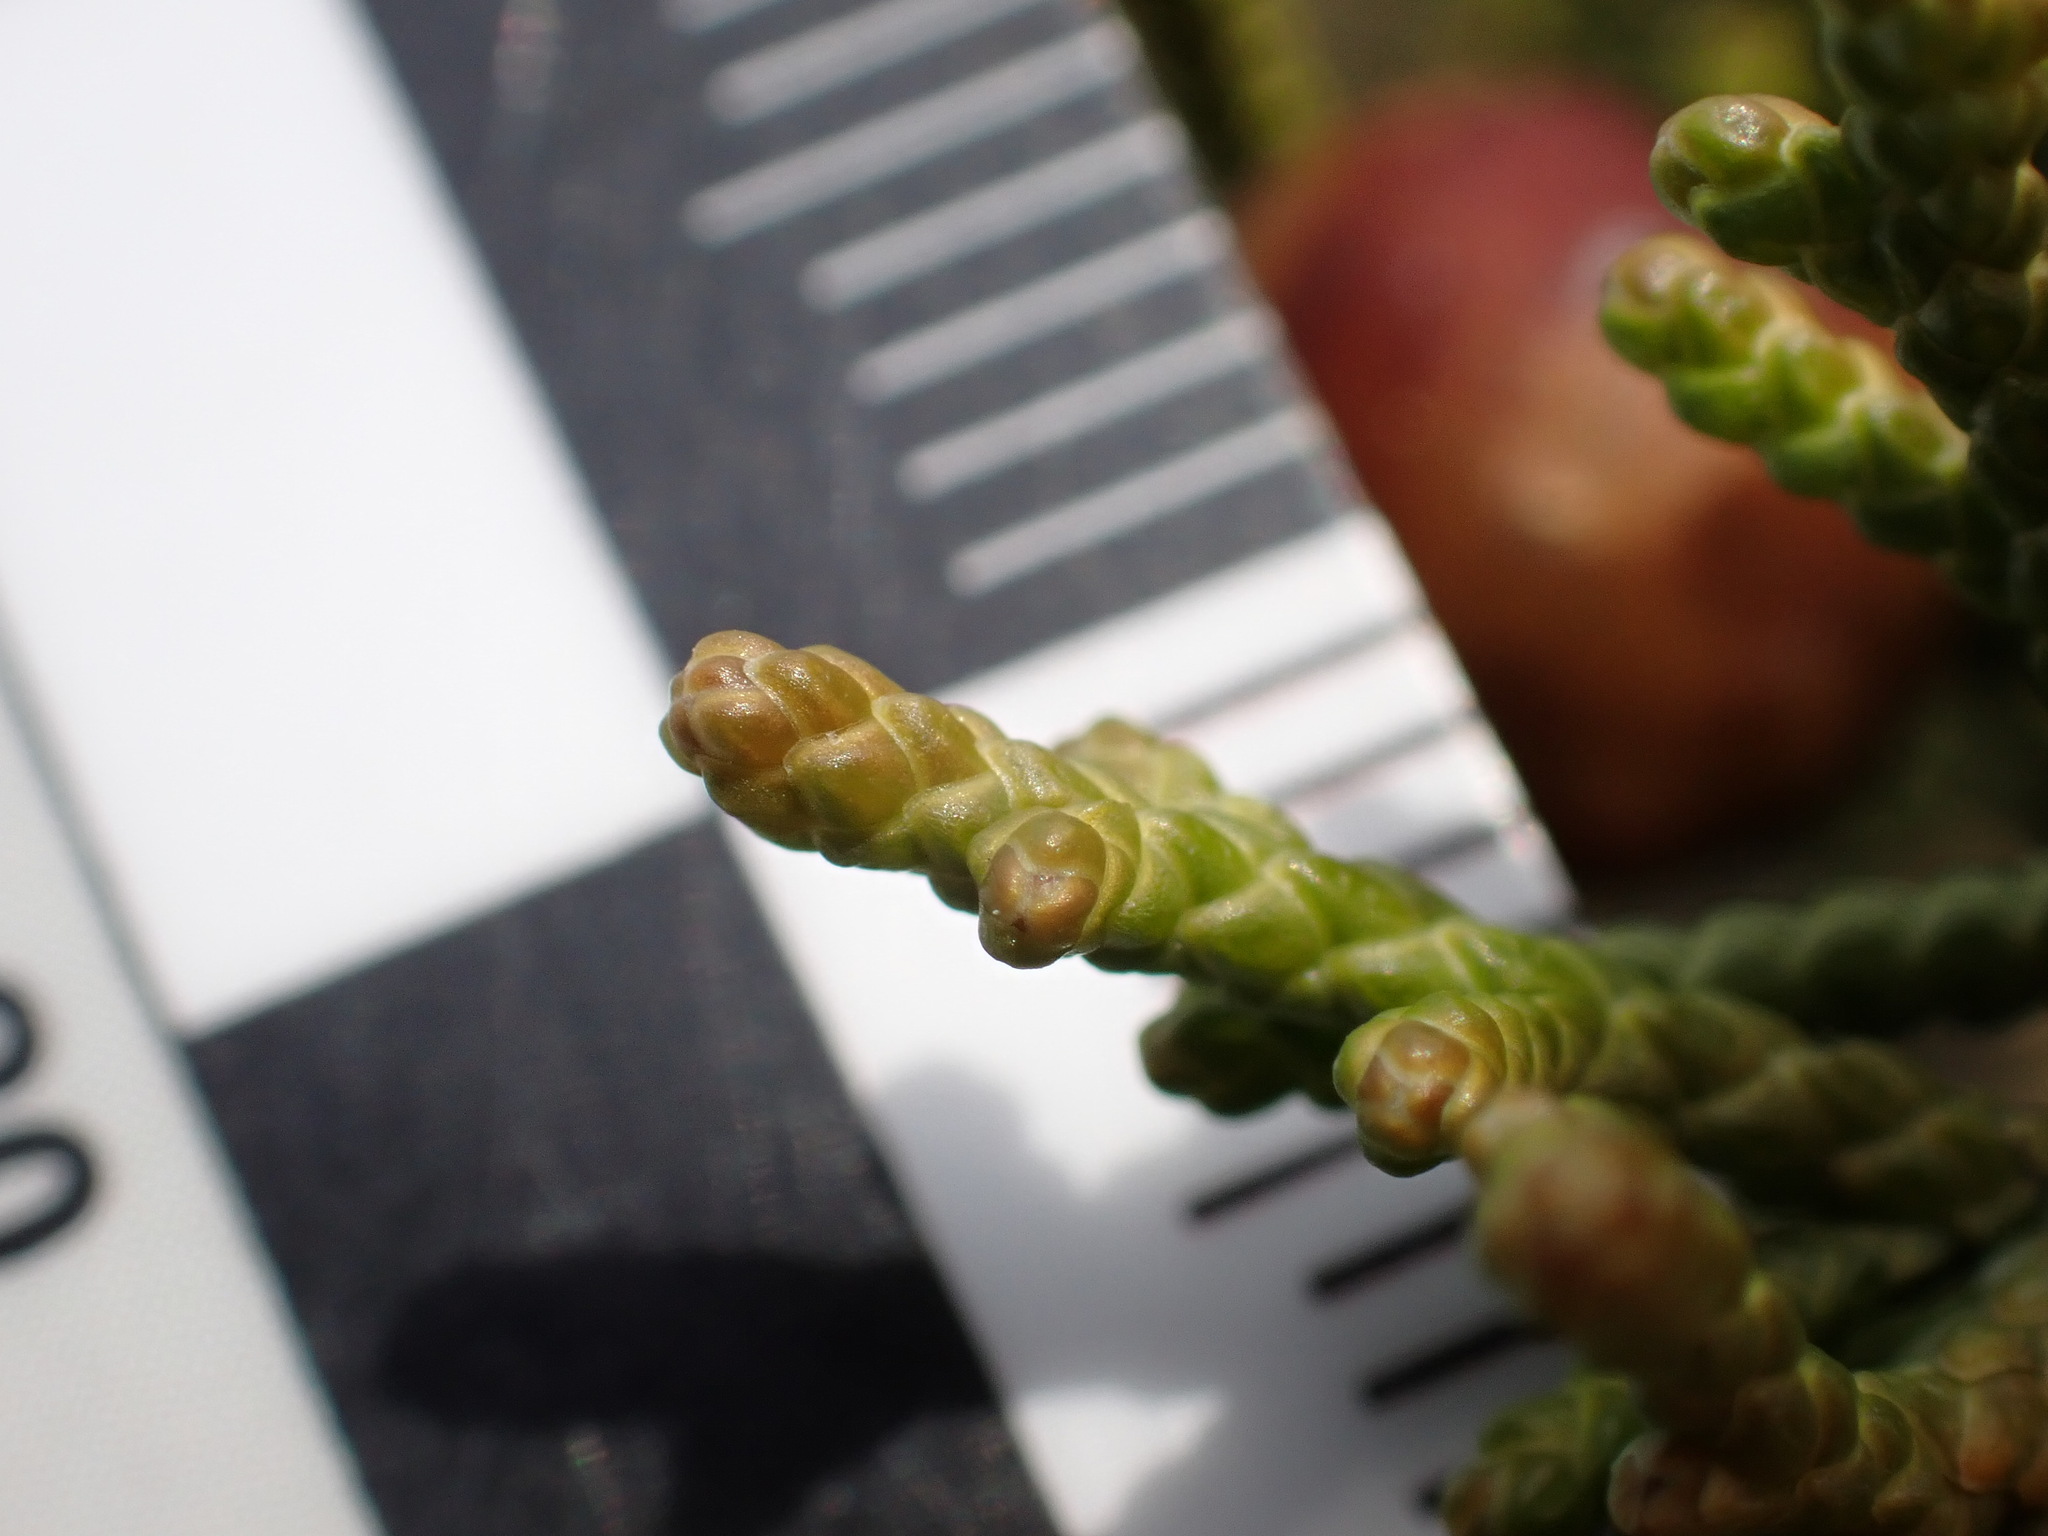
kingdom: Plantae
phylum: Tracheophyta
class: Pinopsida
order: Pinales
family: Cupressaceae
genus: Juniperus
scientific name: Juniperus phoenicea
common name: Phoenician juniper
